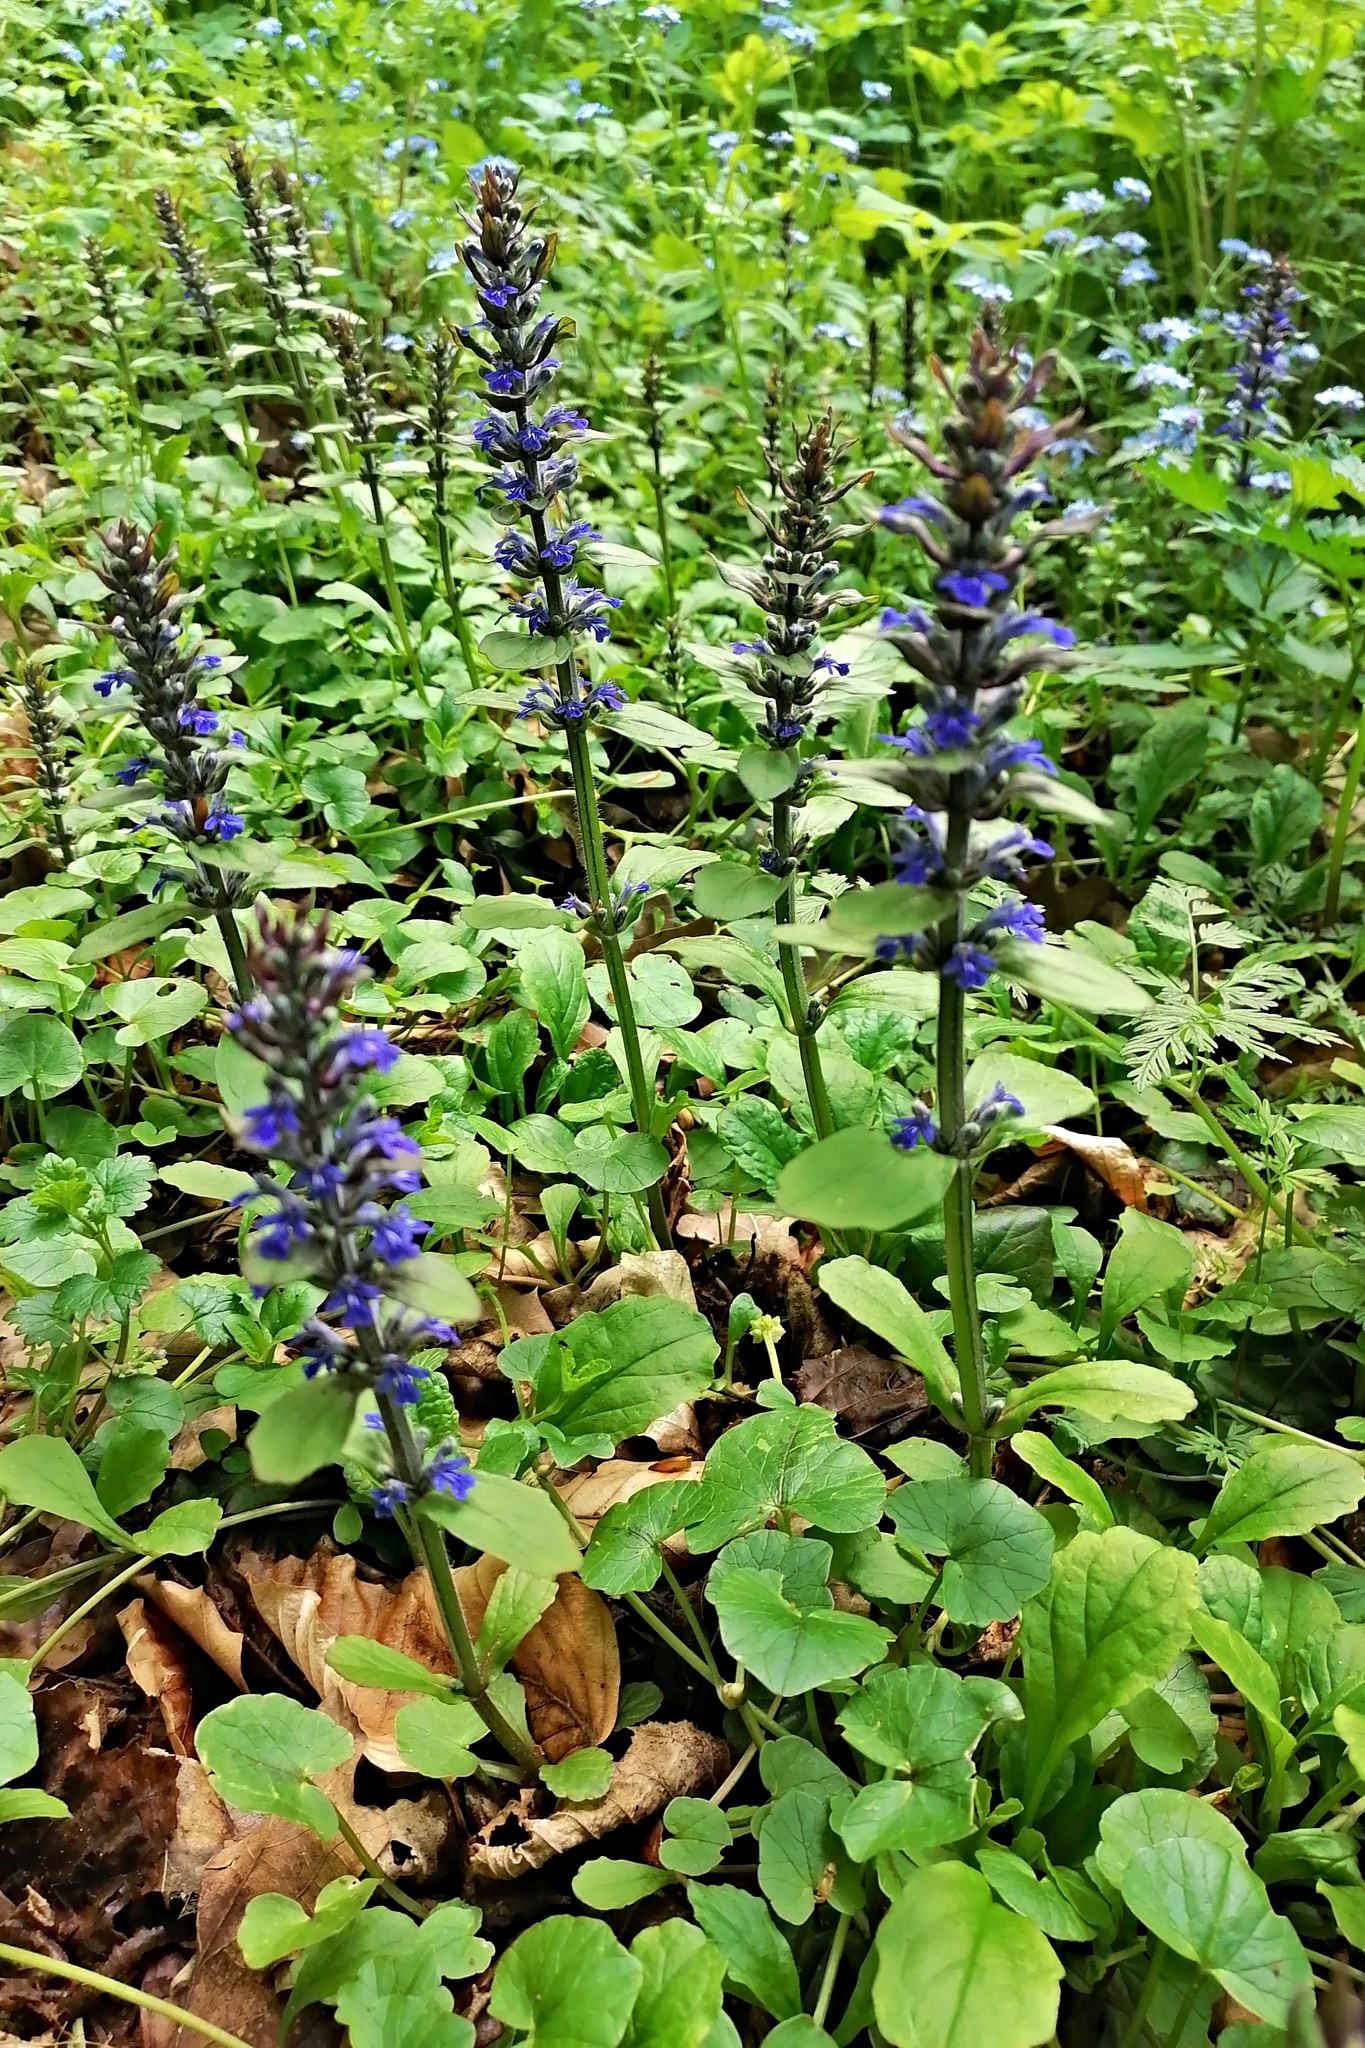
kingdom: Plantae
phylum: Tracheophyta
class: Magnoliopsida
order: Lamiales
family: Lamiaceae
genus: Ajuga
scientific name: Ajuga reptans
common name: Bugle
